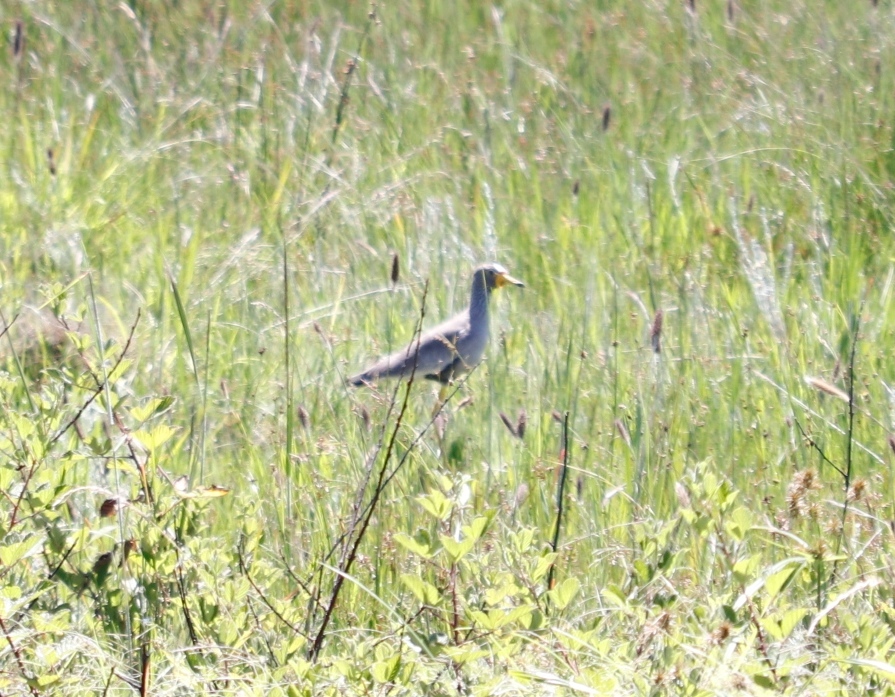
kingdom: Animalia
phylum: Chordata
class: Aves
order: Charadriiformes
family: Charadriidae
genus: Vanellus
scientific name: Vanellus senegallus
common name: African wattled lapwing
